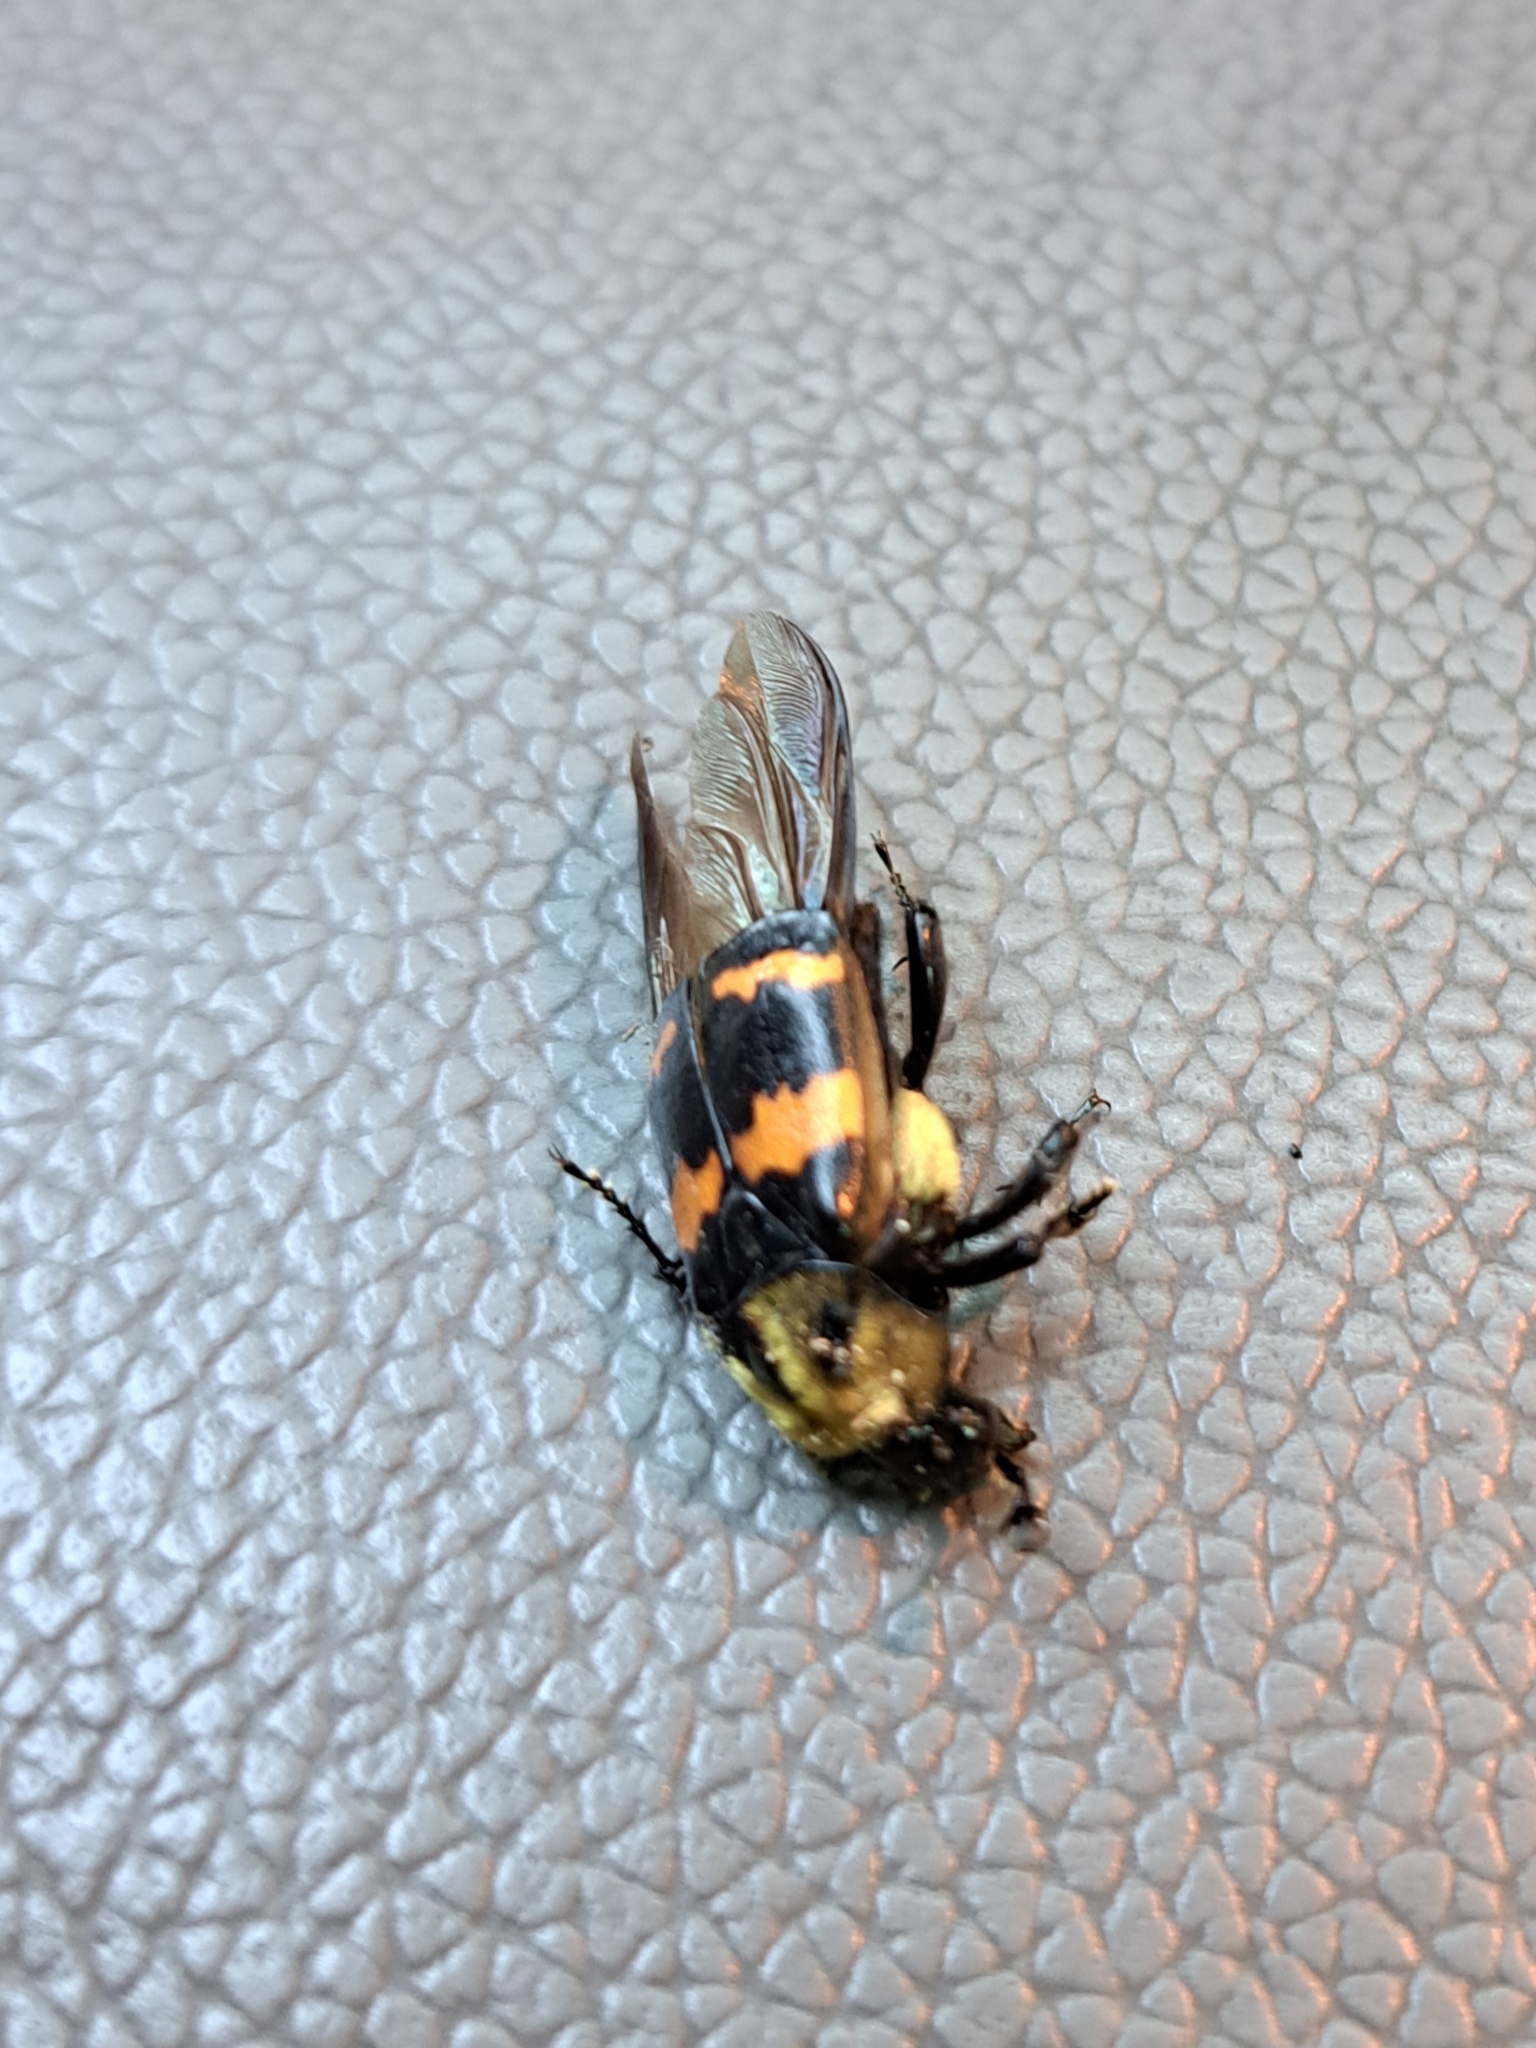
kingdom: Animalia
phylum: Arthropoda
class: Insecta
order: Coleoptera
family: Staphylinidae
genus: Nicrophorus
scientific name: Nicrophorus tomentosus
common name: Tomentose burying beetle
